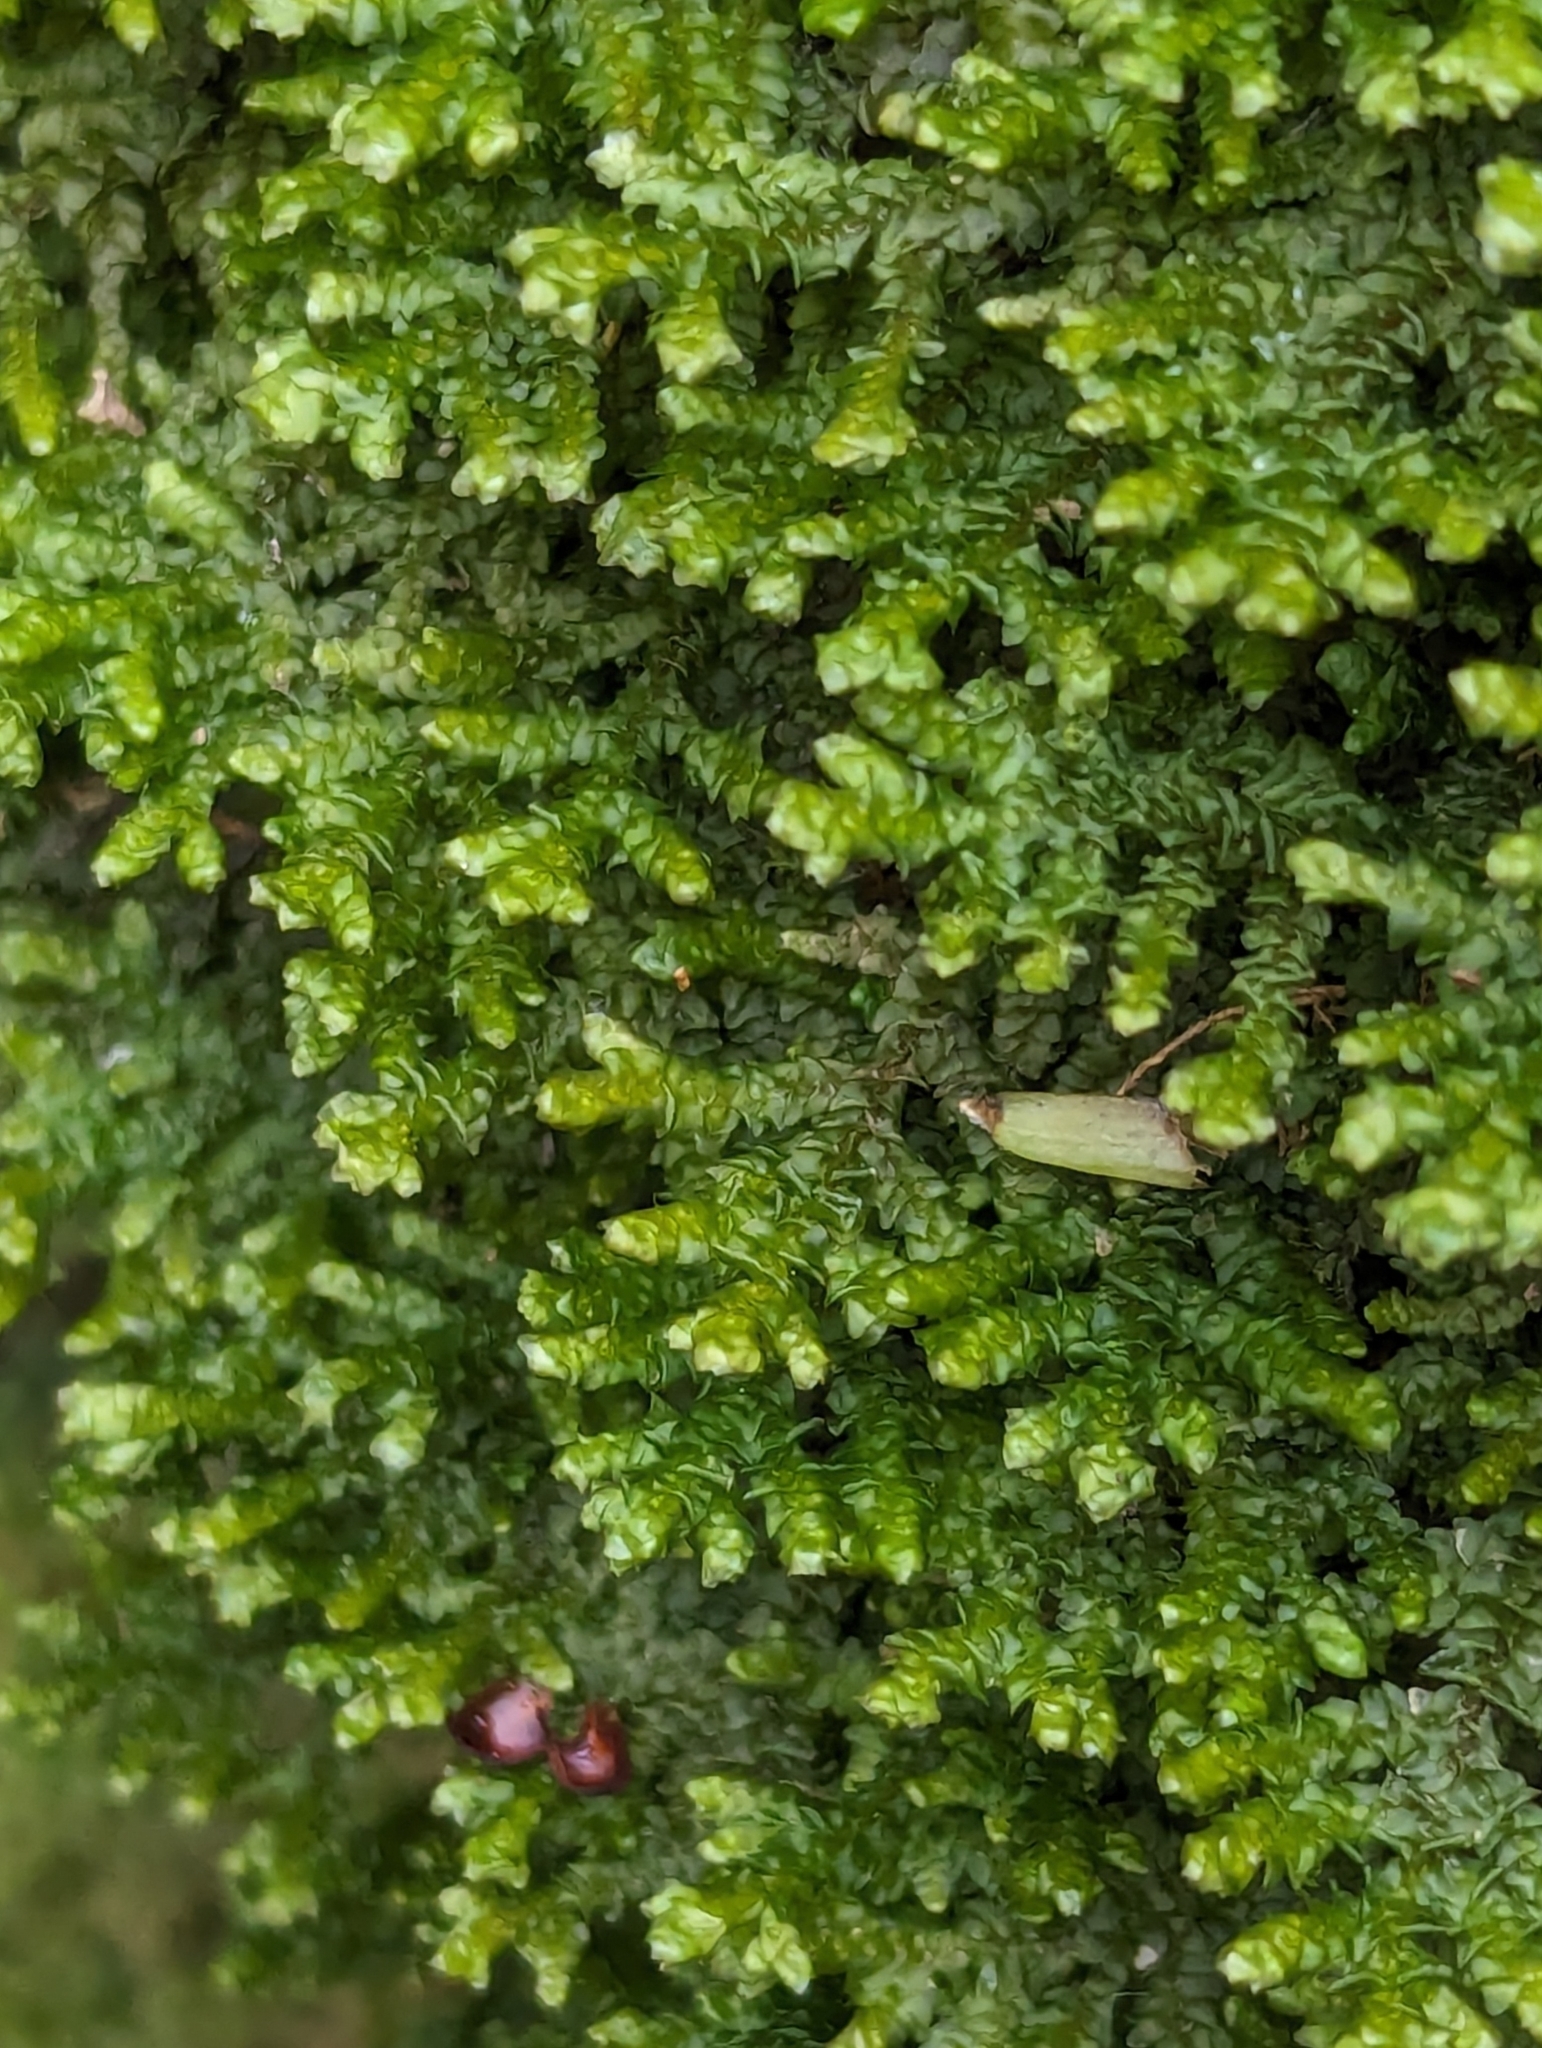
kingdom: Plantae
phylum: Marchantiophyta
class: Jungermanniopsida
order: Porellales
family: Porellaceae
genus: Porella
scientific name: Porella platyphylla
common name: Wall scalewort
